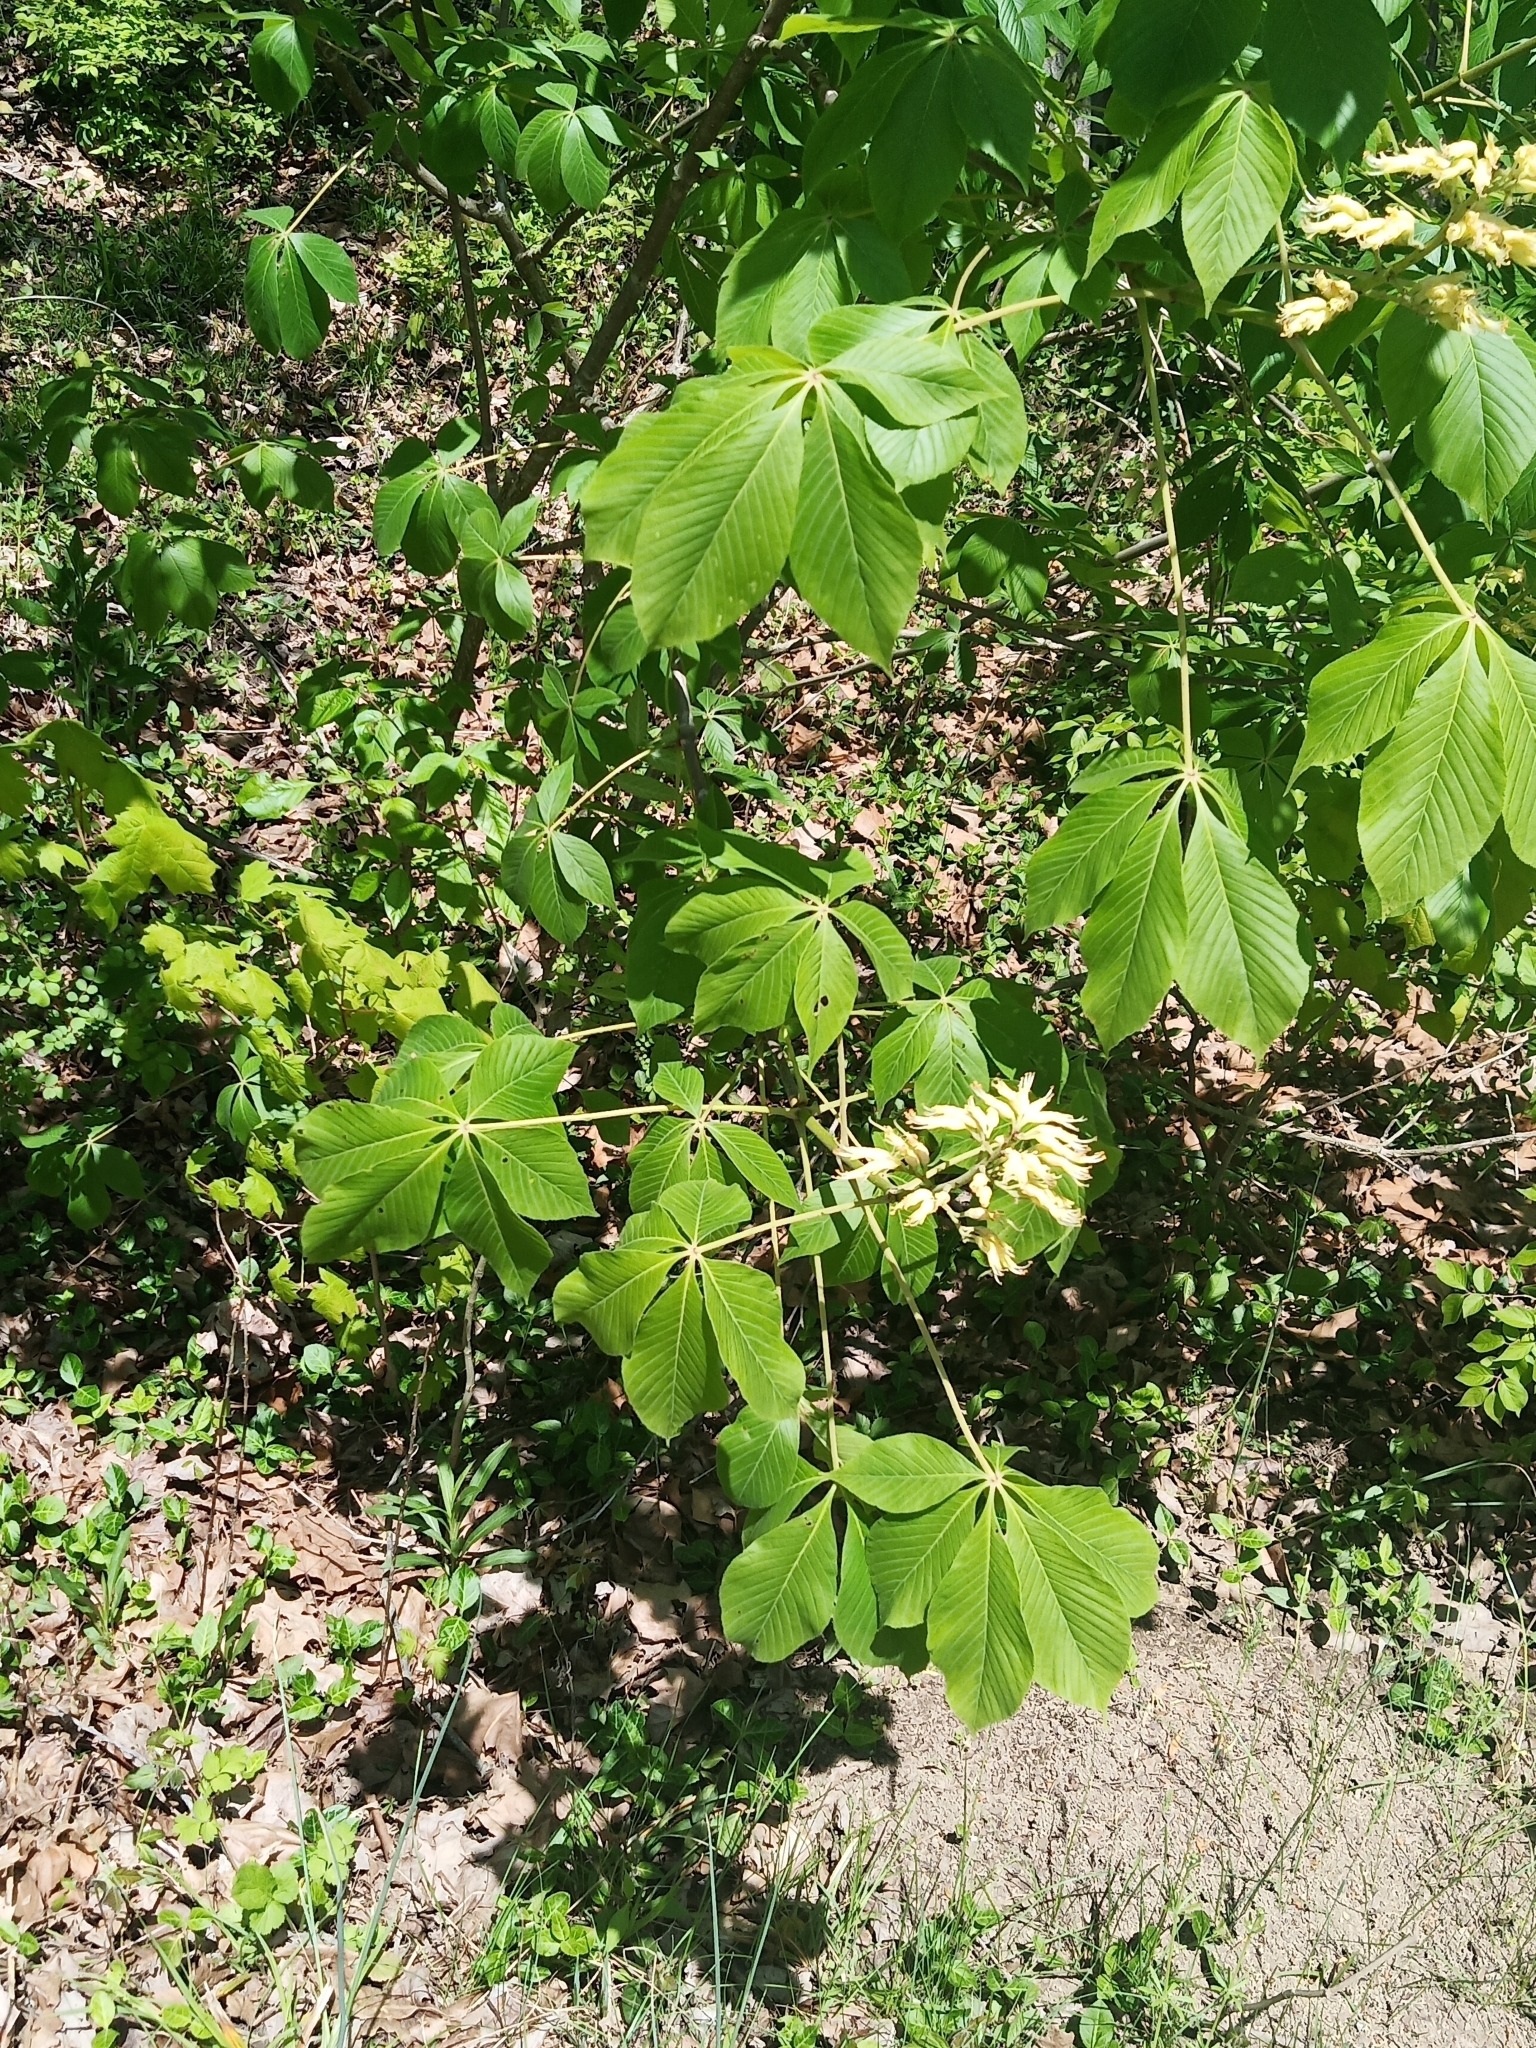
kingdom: Plantae
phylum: Tracheophyta
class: Magnoliopsida
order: Sapindales
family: Sapindaceae
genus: Aesculus
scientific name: Aesculus glabra
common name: Ohio buckeye
